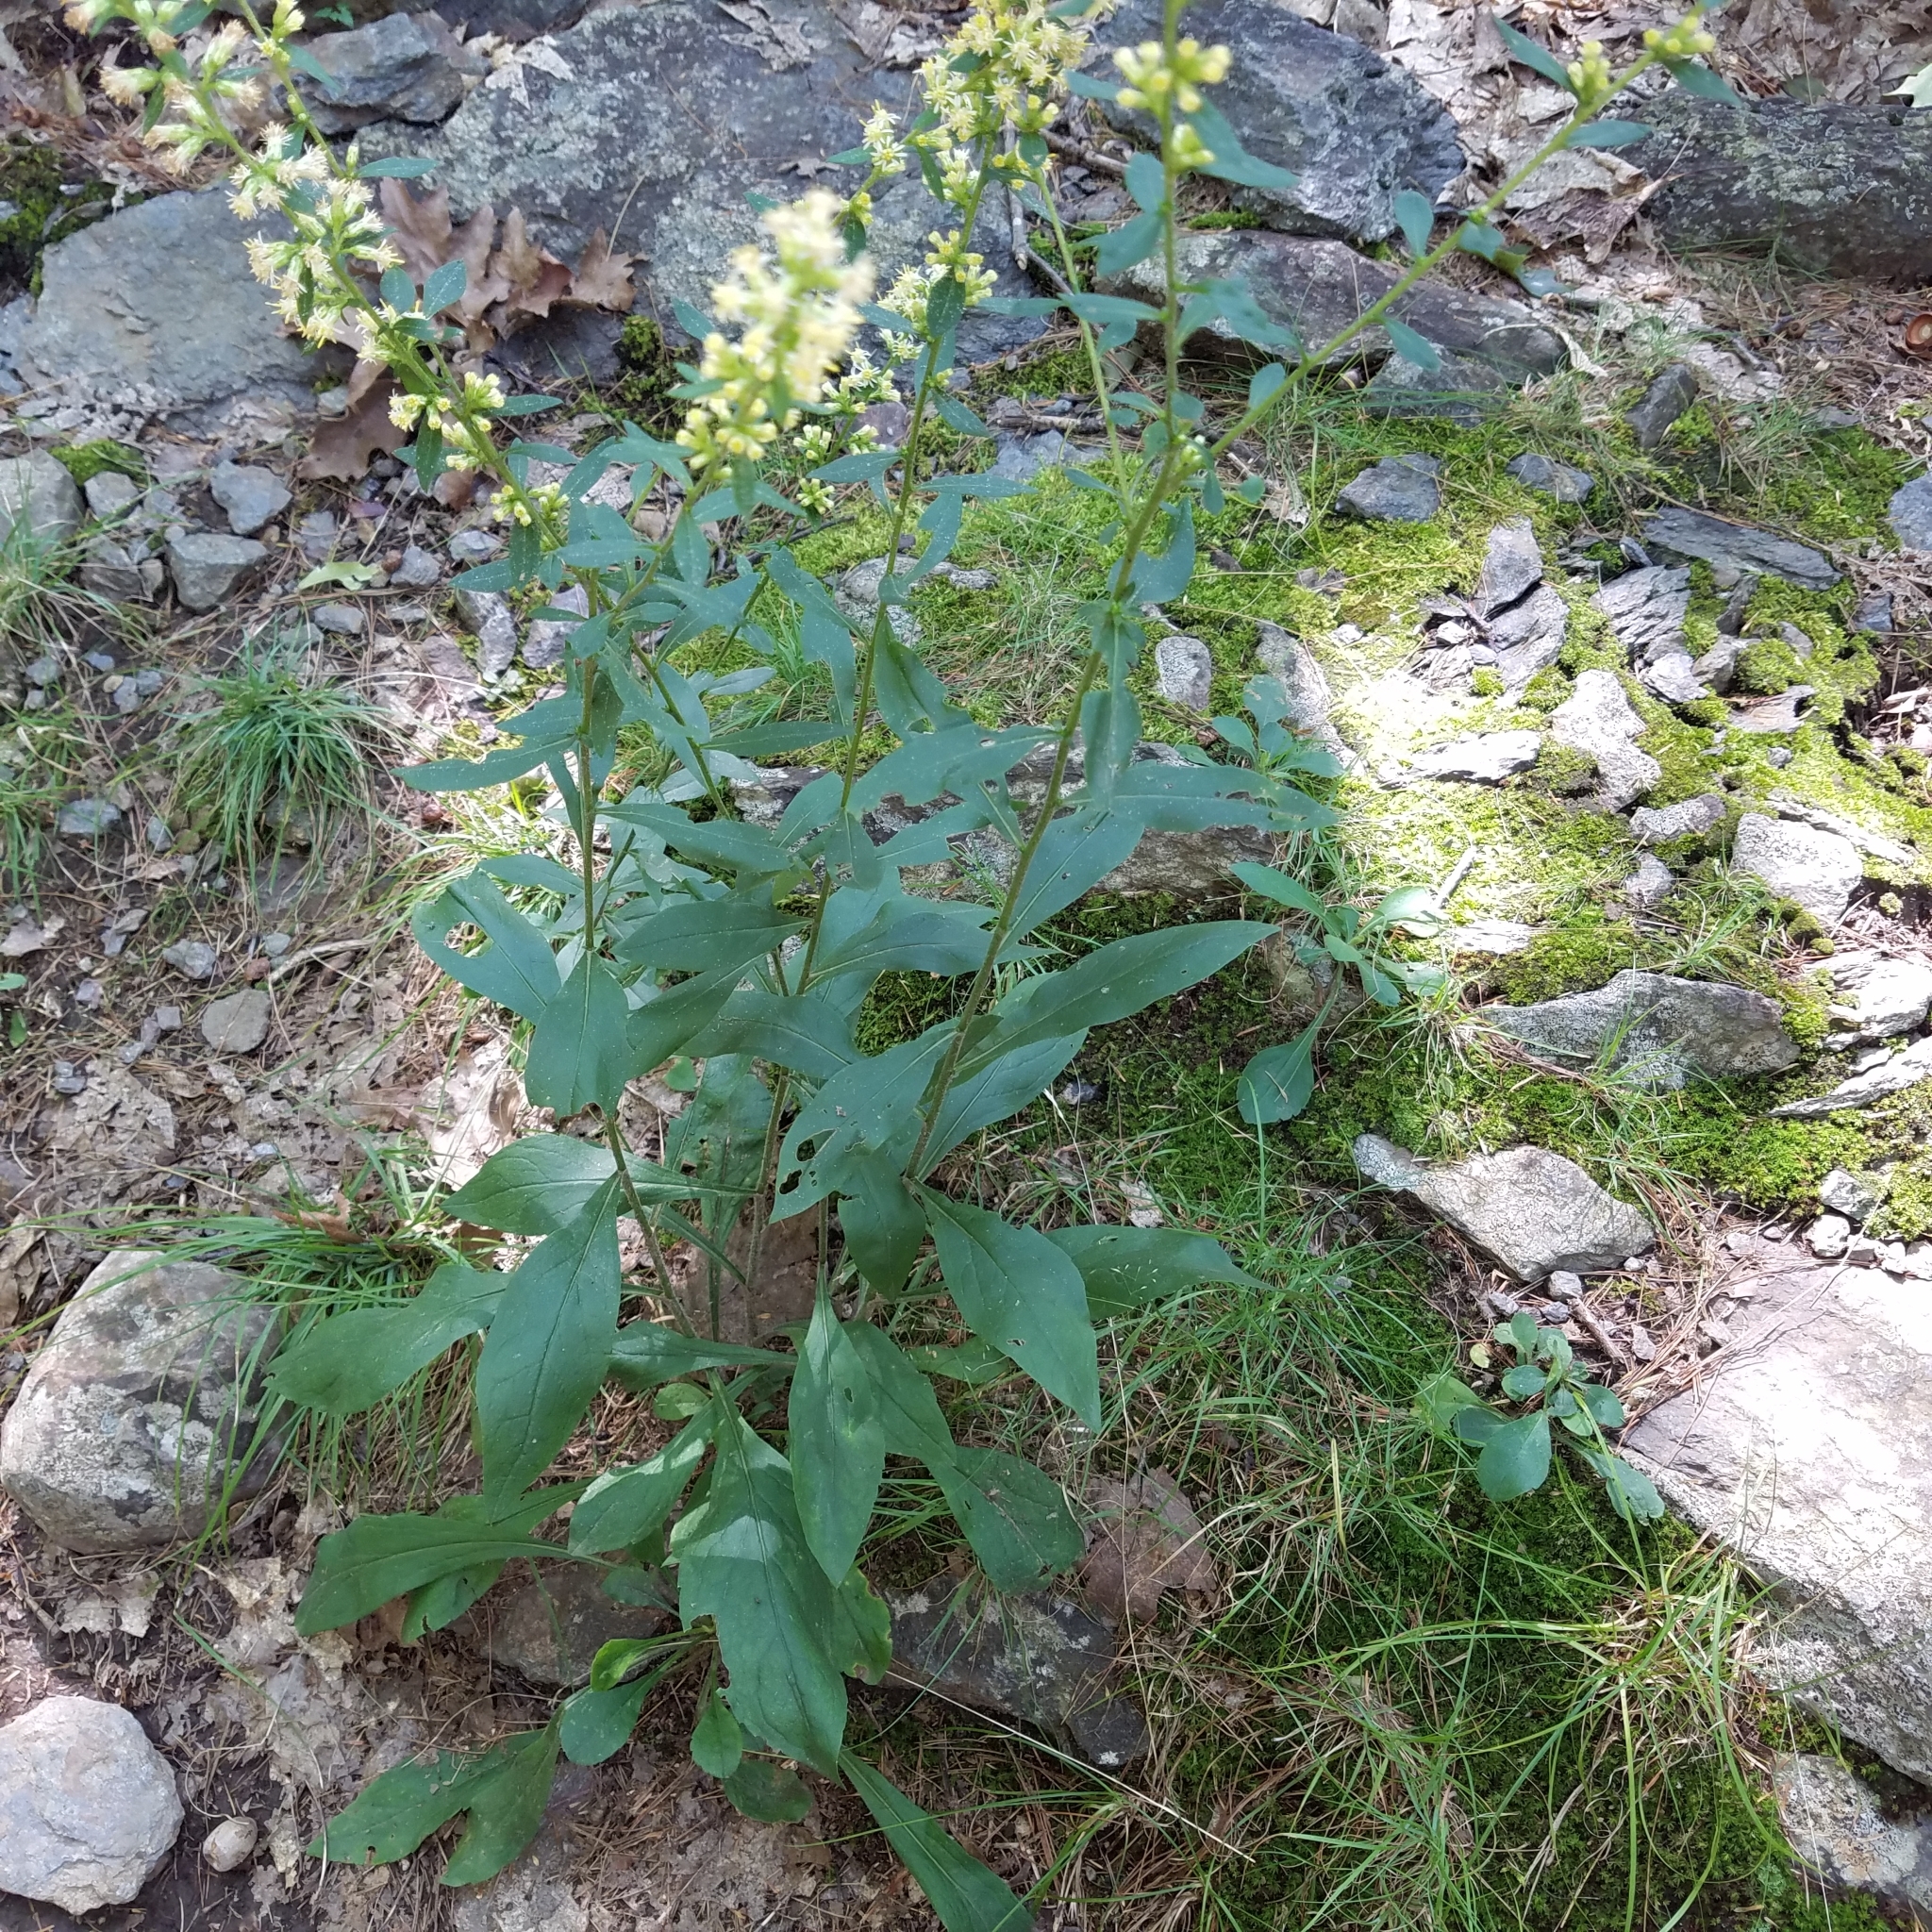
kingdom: Plantae
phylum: Tracheophyta
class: Magnoliopsida
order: Asterales
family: Asteraceae
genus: Solidago
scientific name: Solidago bicolor
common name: Silverrod
